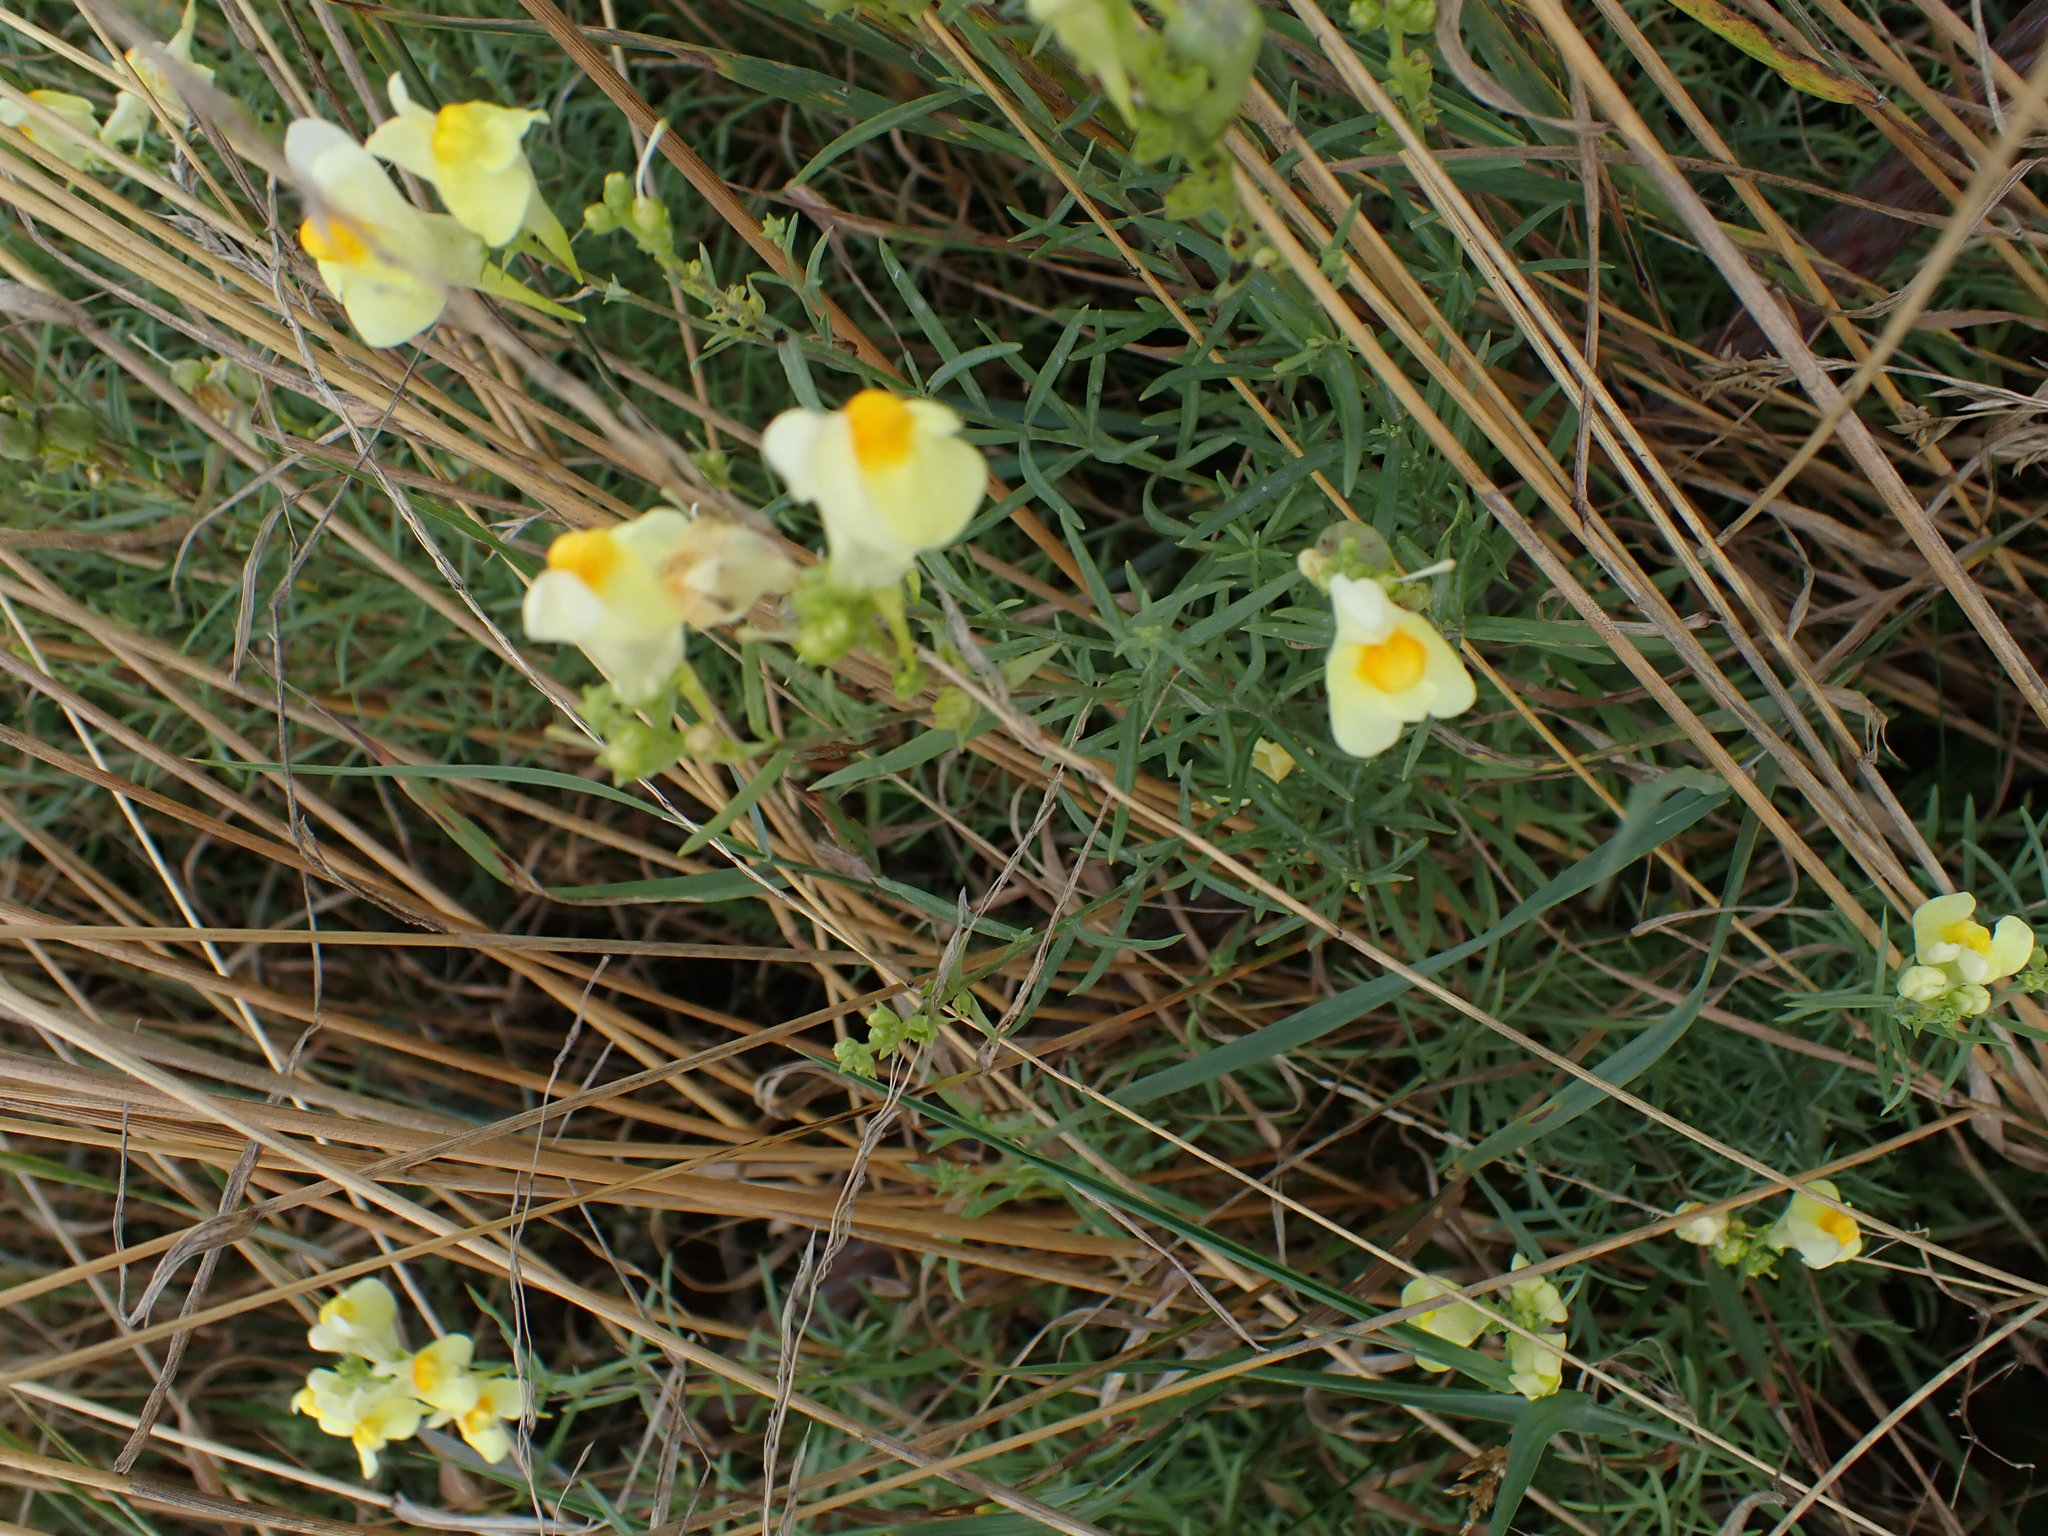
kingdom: Plantae
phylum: Tracheophyta
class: Magnoliopsida
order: Lamiales
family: Plantaginaceae
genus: Linaria
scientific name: Linaria vulgaris
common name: Butter and eggs
